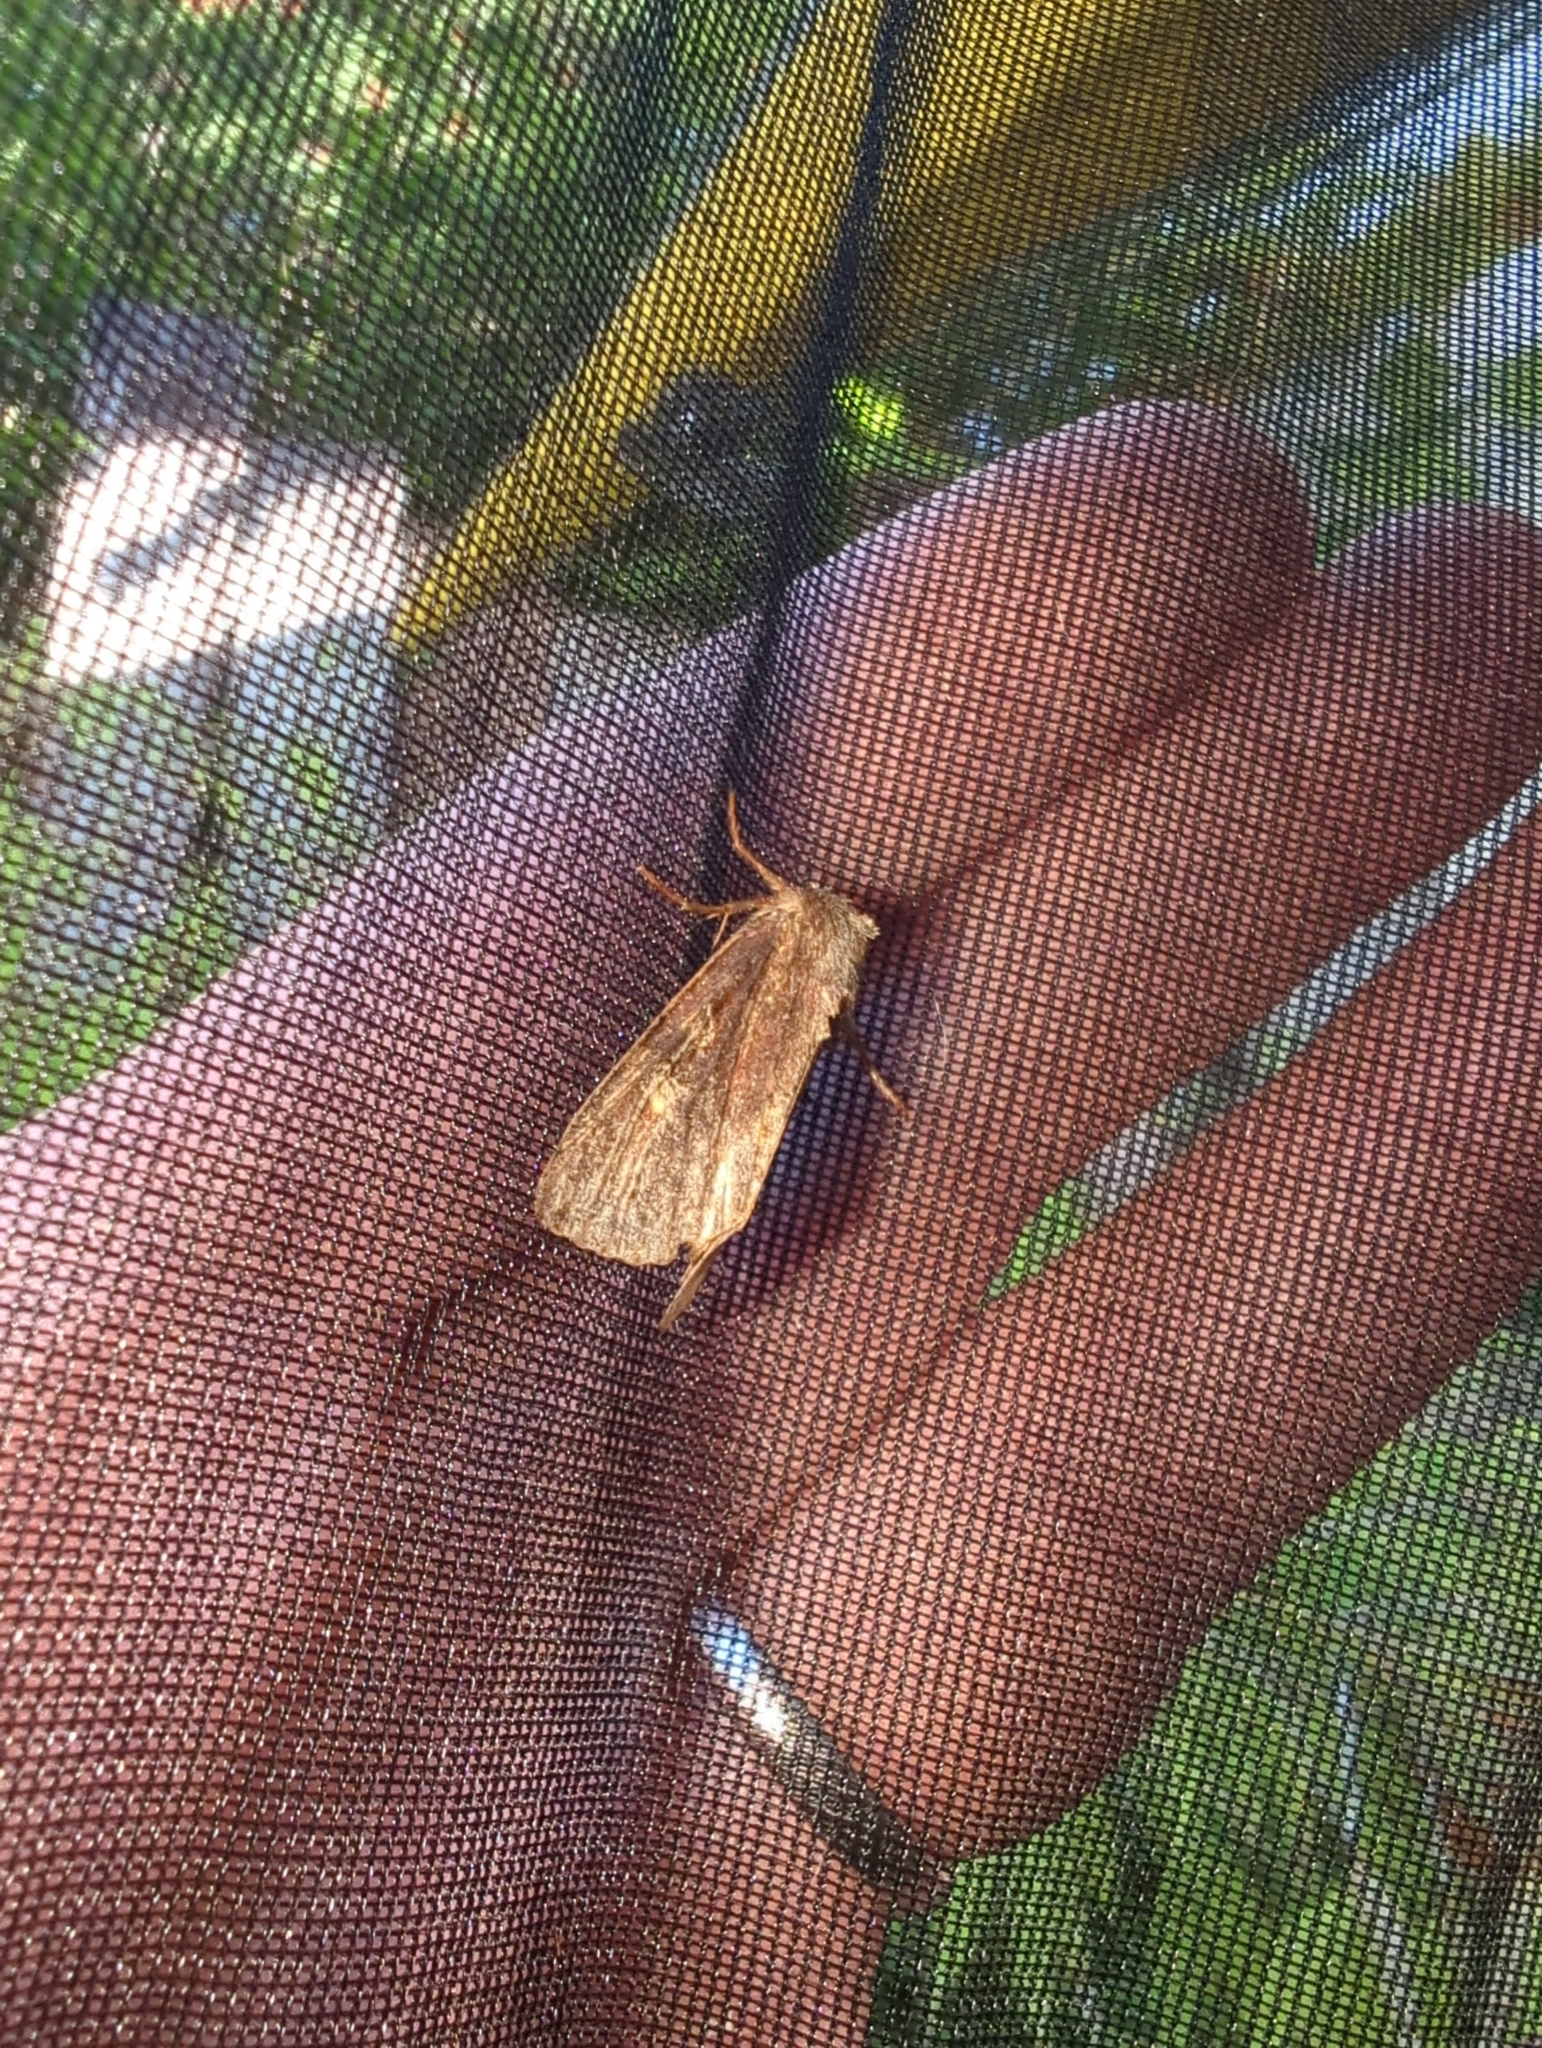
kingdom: Animalia
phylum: Arthropoda
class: Insecta
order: Lepidoptera
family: Noctuidae
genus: Apamea
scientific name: Apamea cogitata
